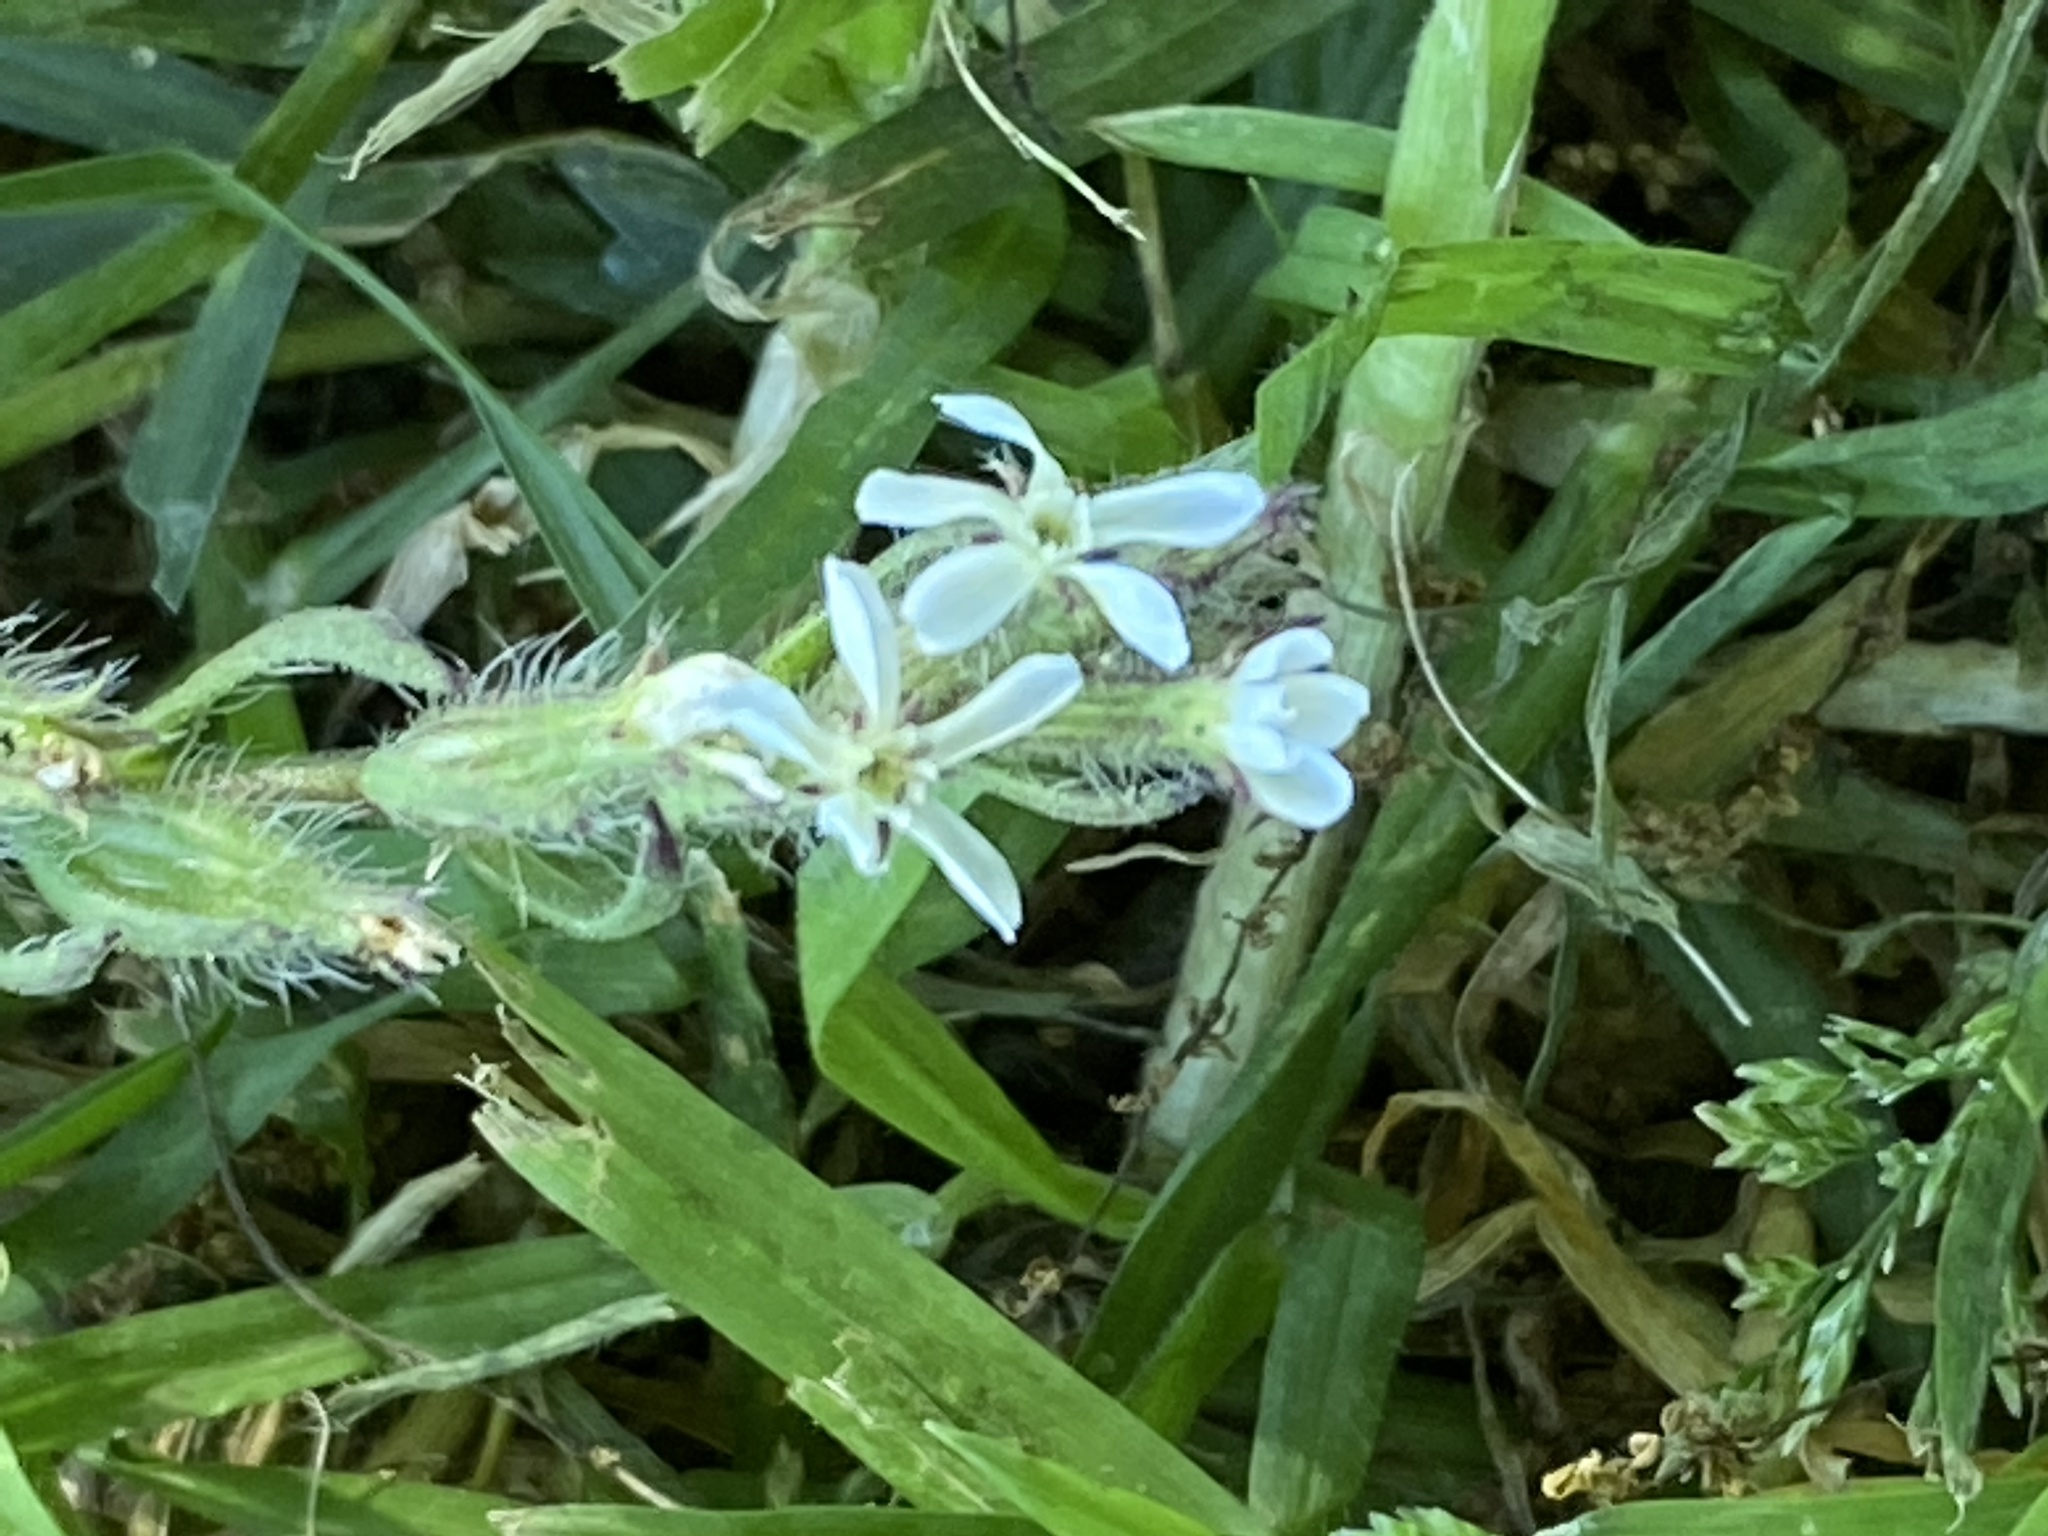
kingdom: Plantae
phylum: Tracheophyta
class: Magnoliopsida
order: Caryophyllales
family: Caryophyllaceae
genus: Silene
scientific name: Silene gallica
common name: Small-flowered catchfly
